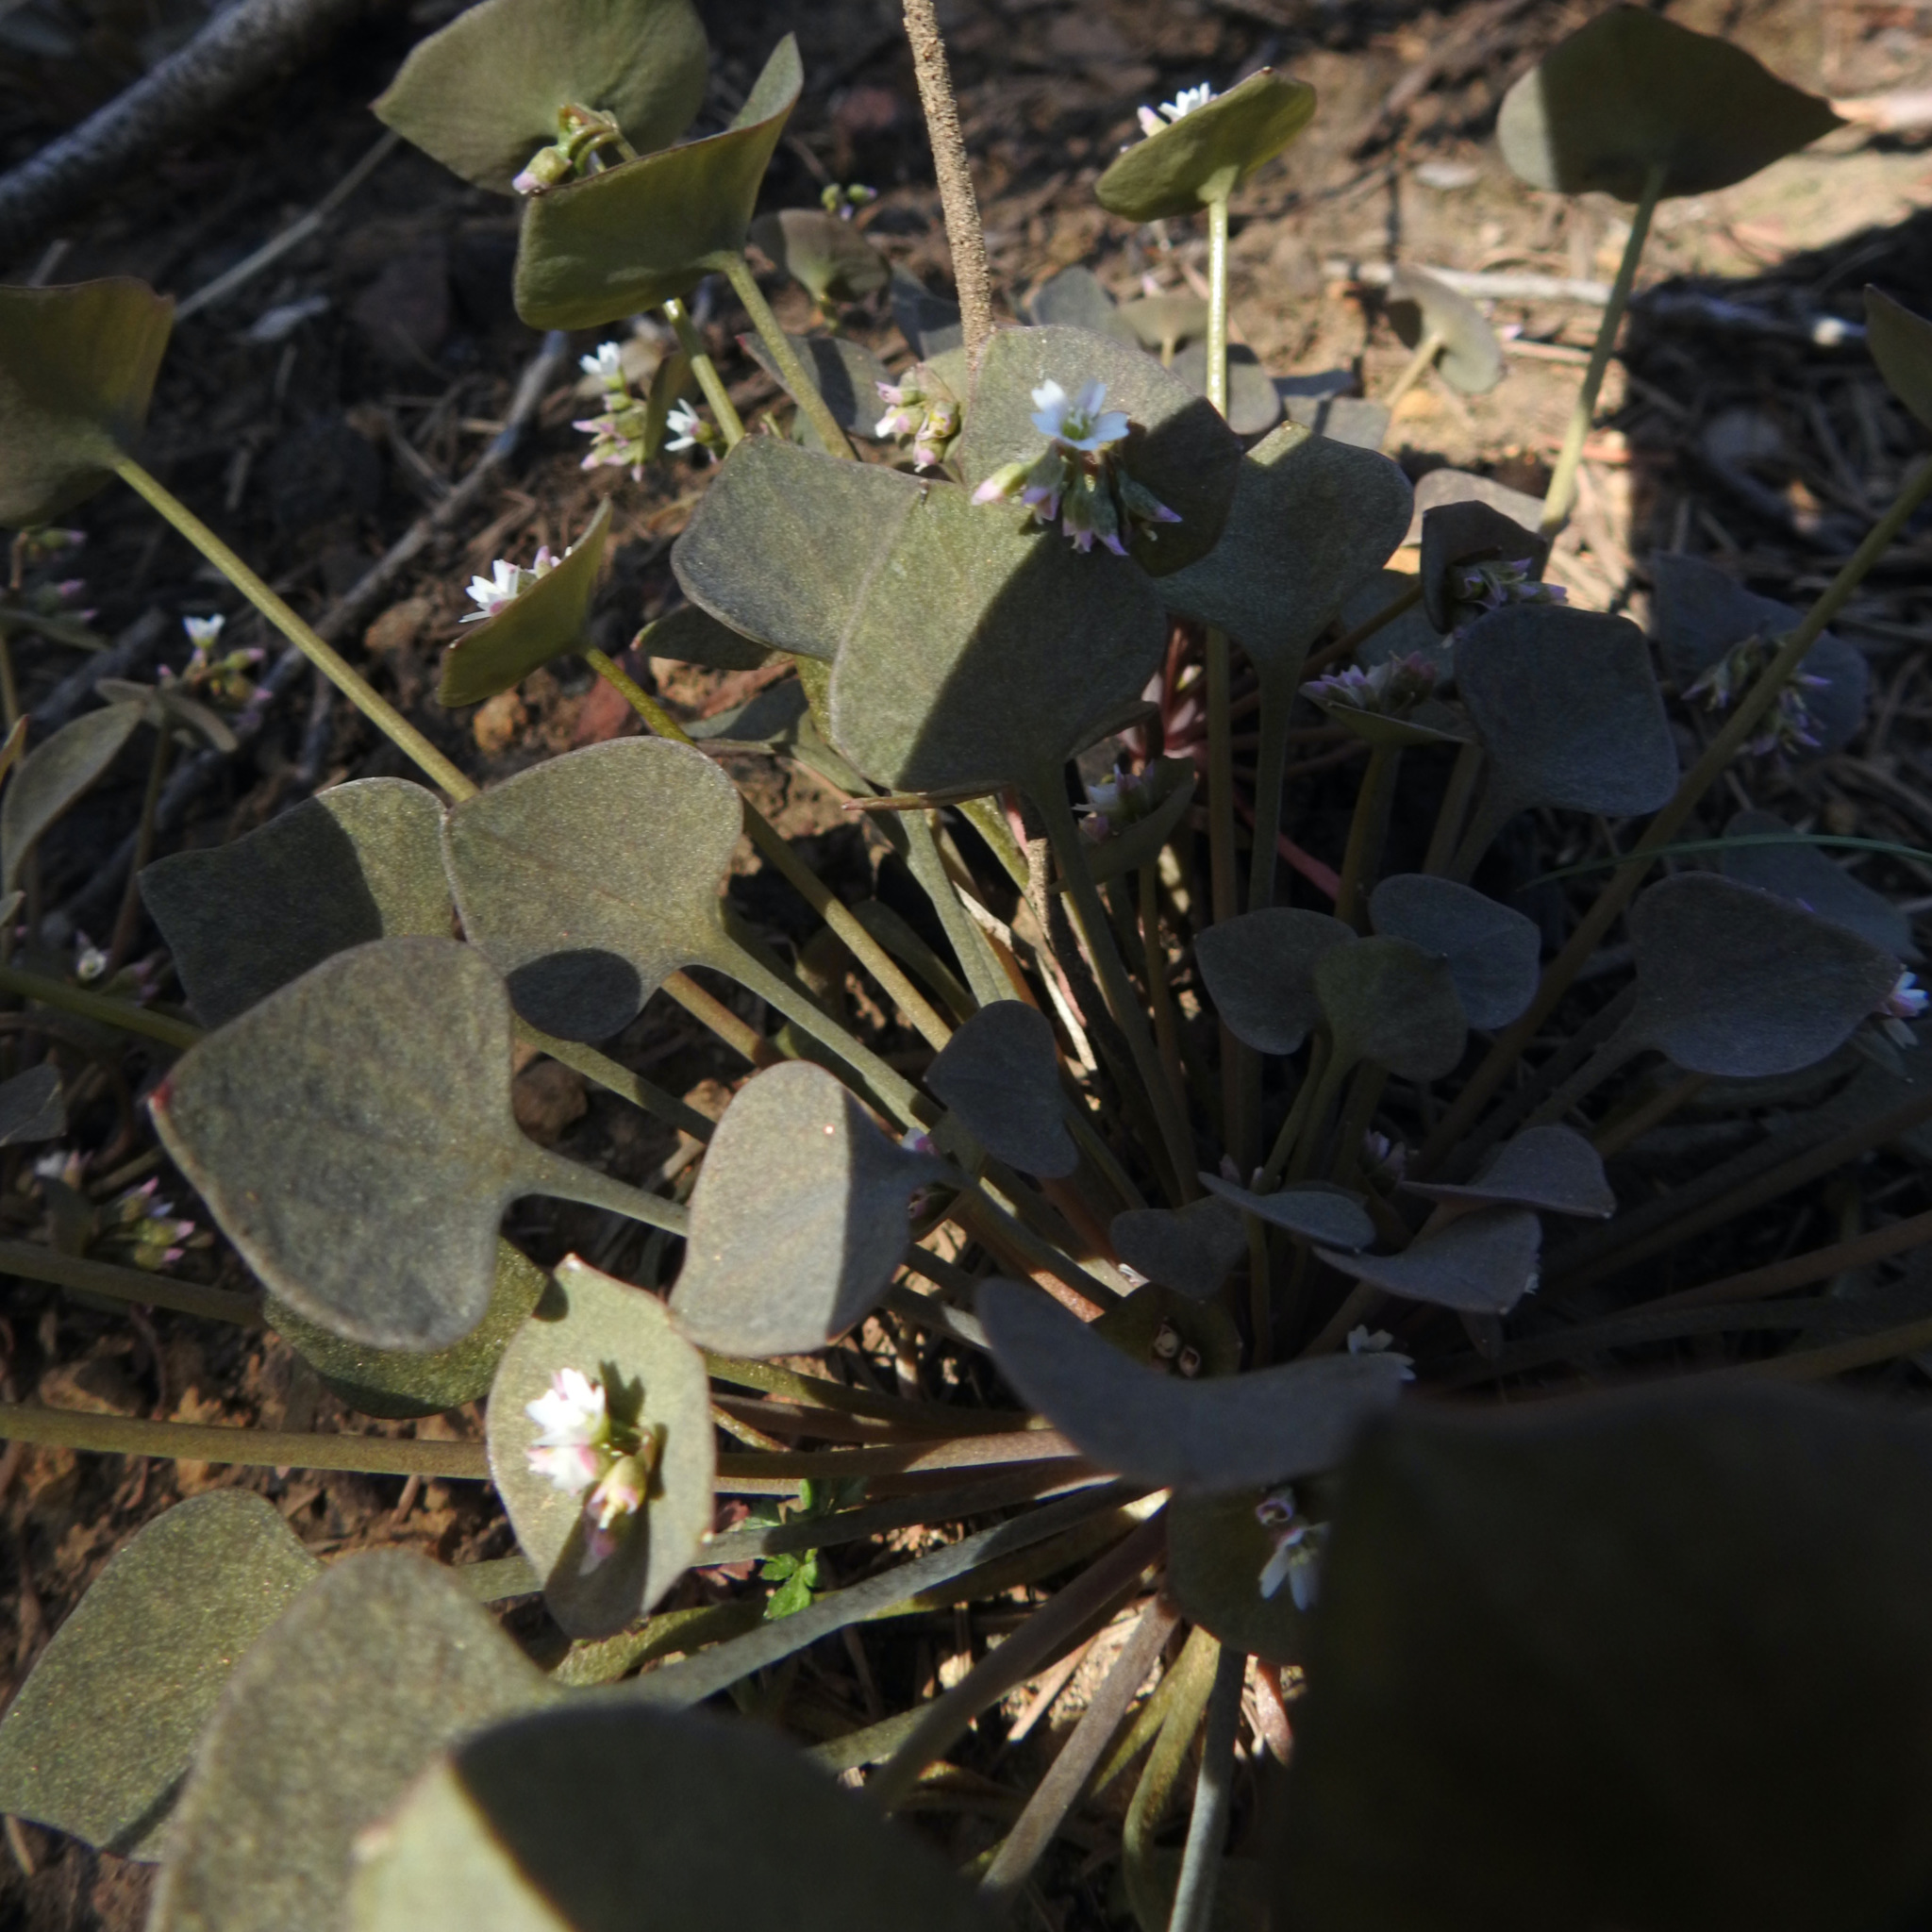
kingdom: Plantae
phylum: Tracheophyta
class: Magnoliopsida
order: Caryophyllales
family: Montiaceae
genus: Claytonia
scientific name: Claytonia rubra
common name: Erubescent miner's-lettuce
